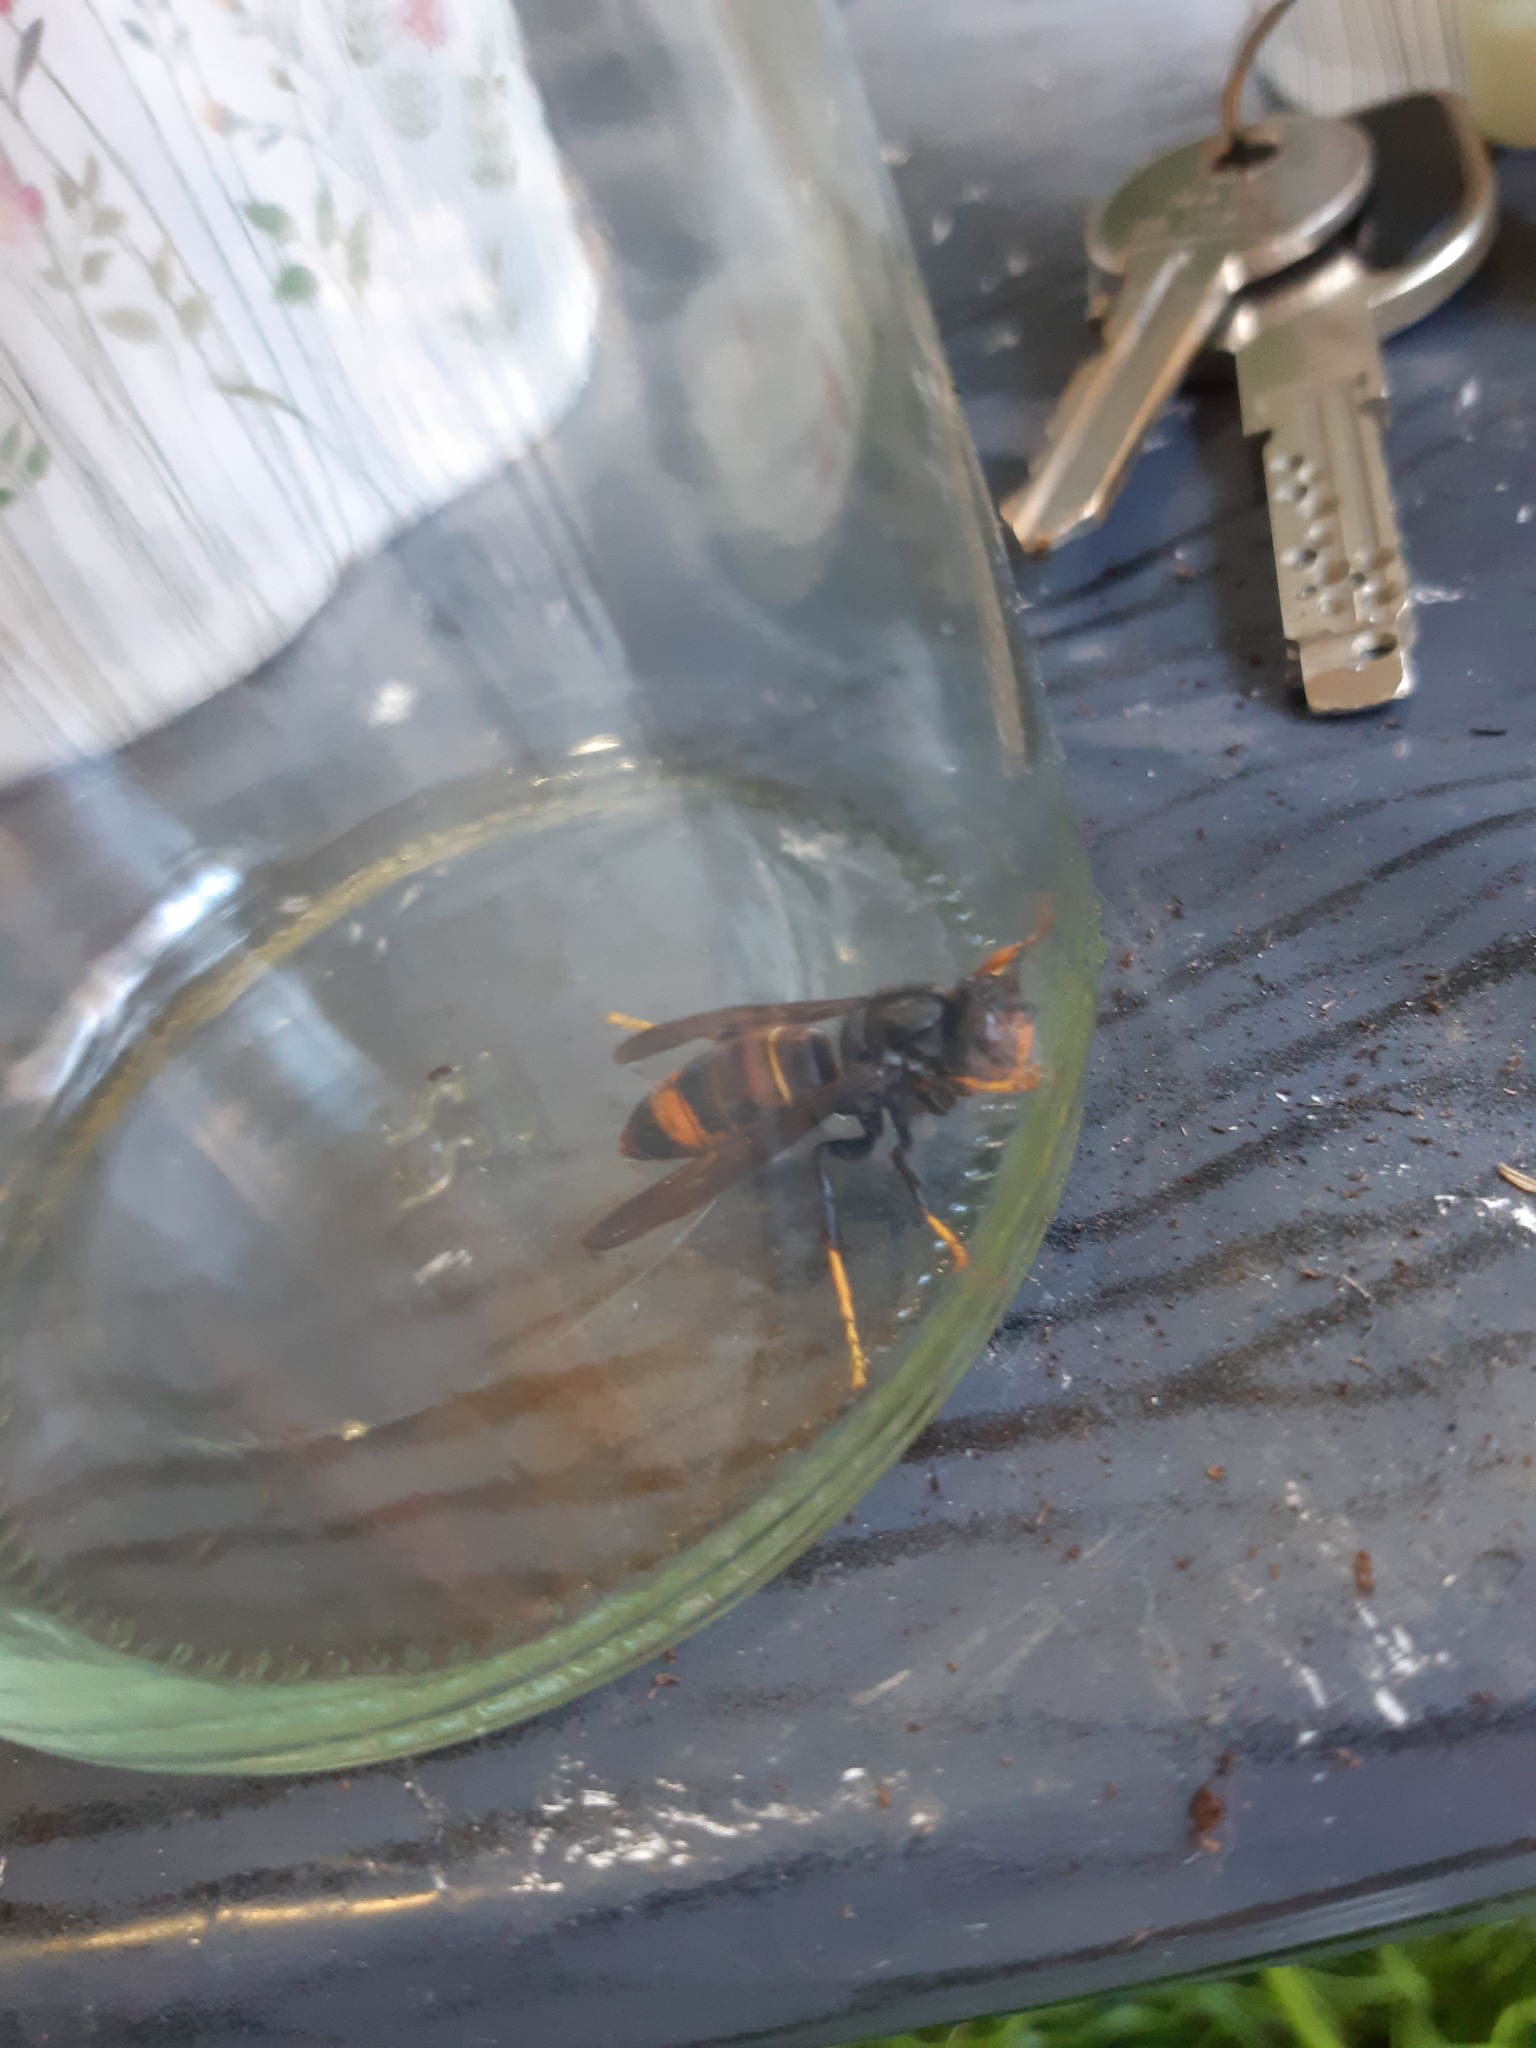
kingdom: Animalia
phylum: Arthropoda
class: Insecta
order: Hymenoptera
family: Vespidae
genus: Vespa
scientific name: Vespa velutina
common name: Asian hornet
